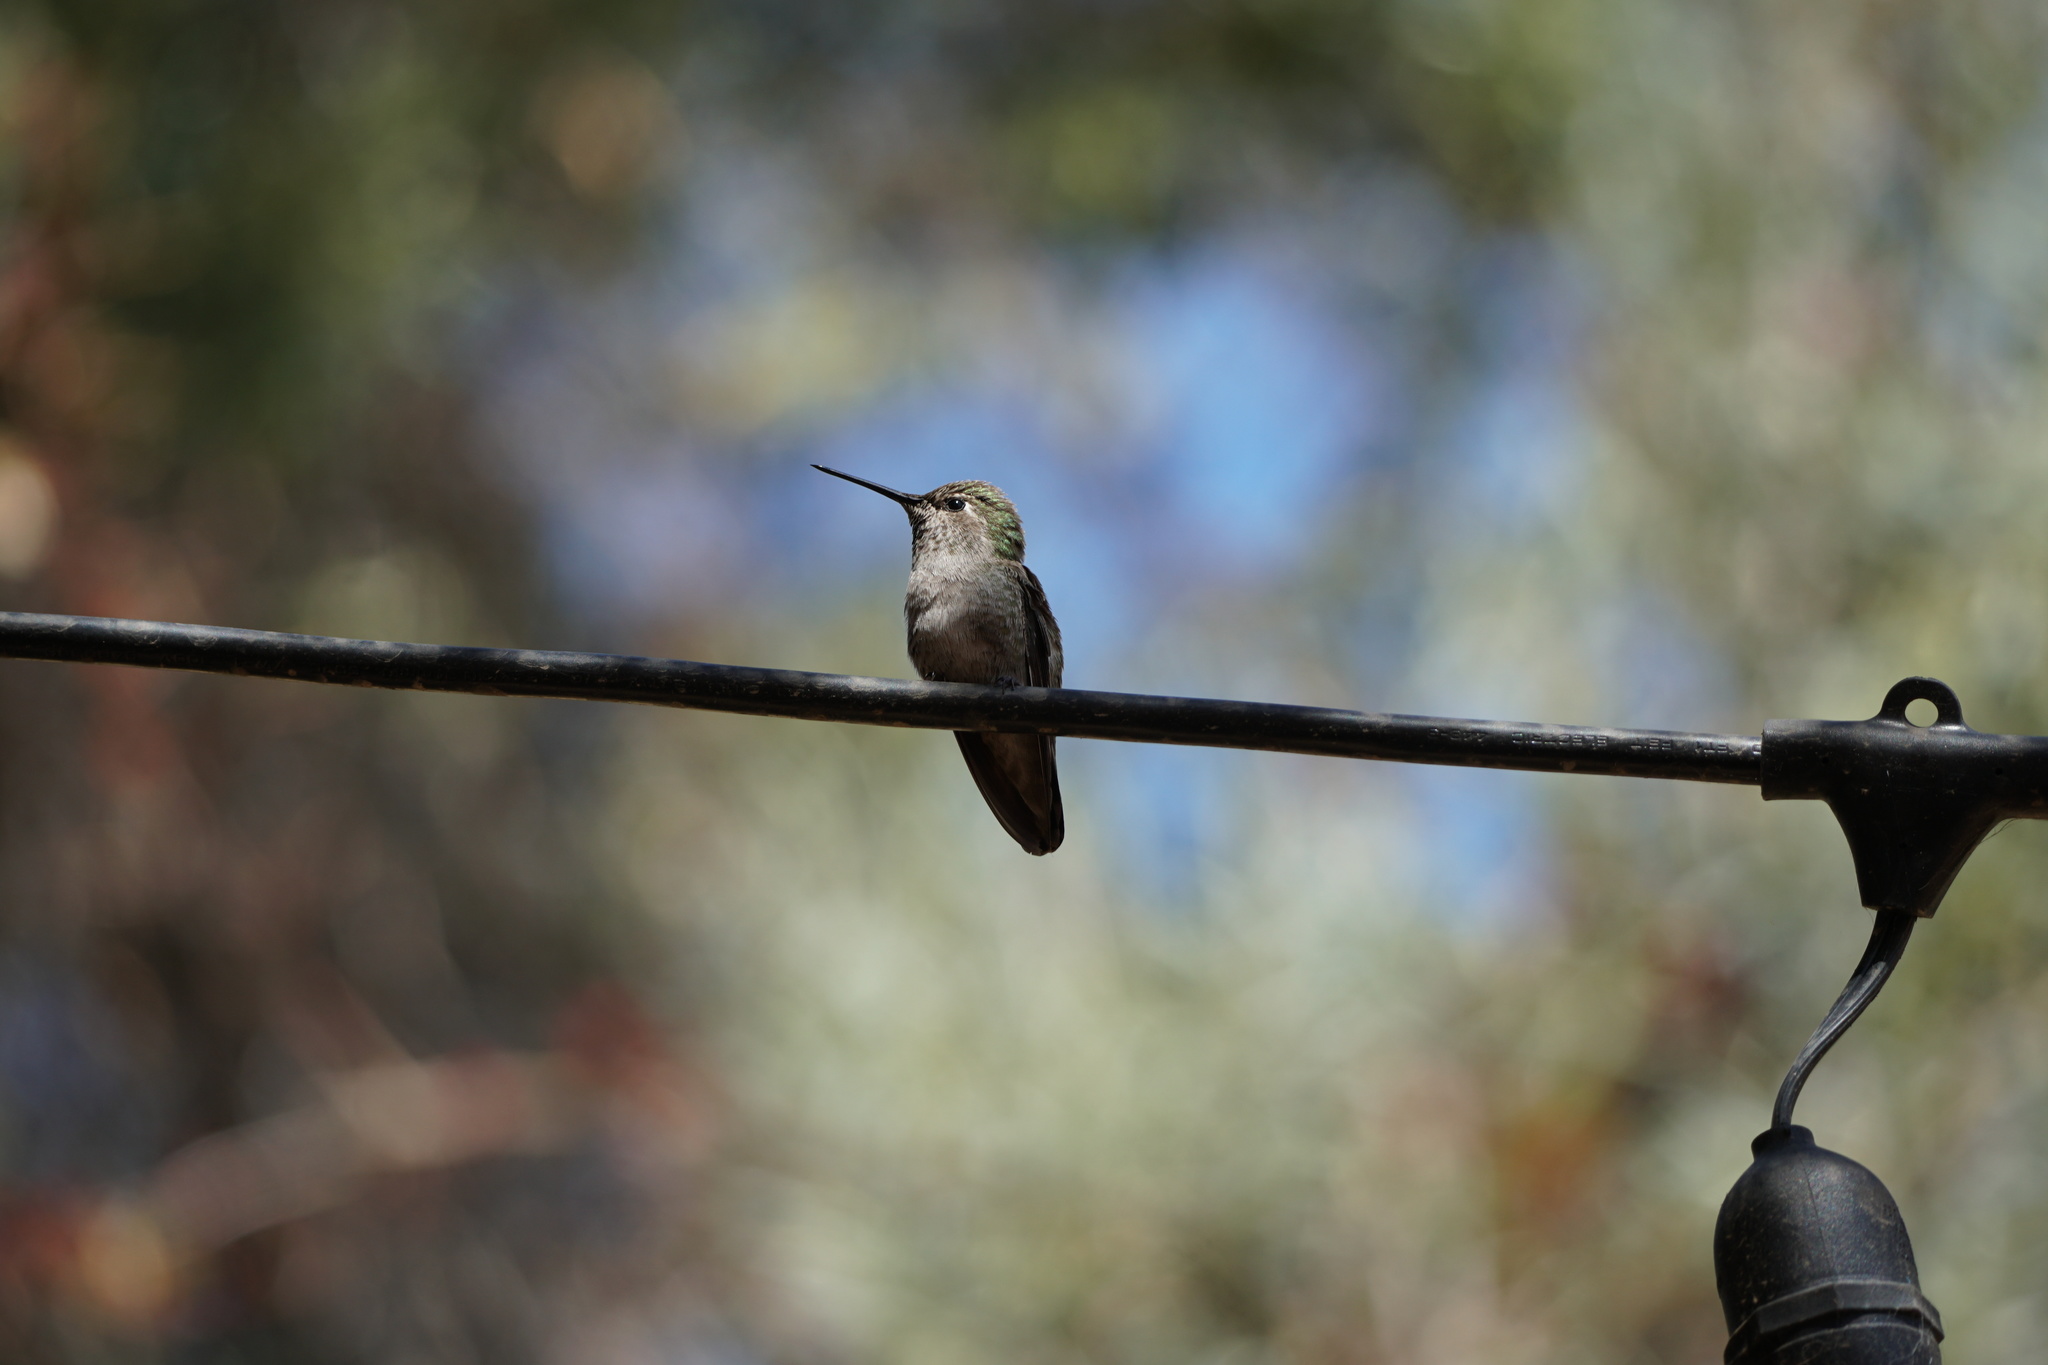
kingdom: Animalia
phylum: Chordata
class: Aves
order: Apodiformes
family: Trochilidae
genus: Calypte
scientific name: Calypte anna
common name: Anna's hummingbird
